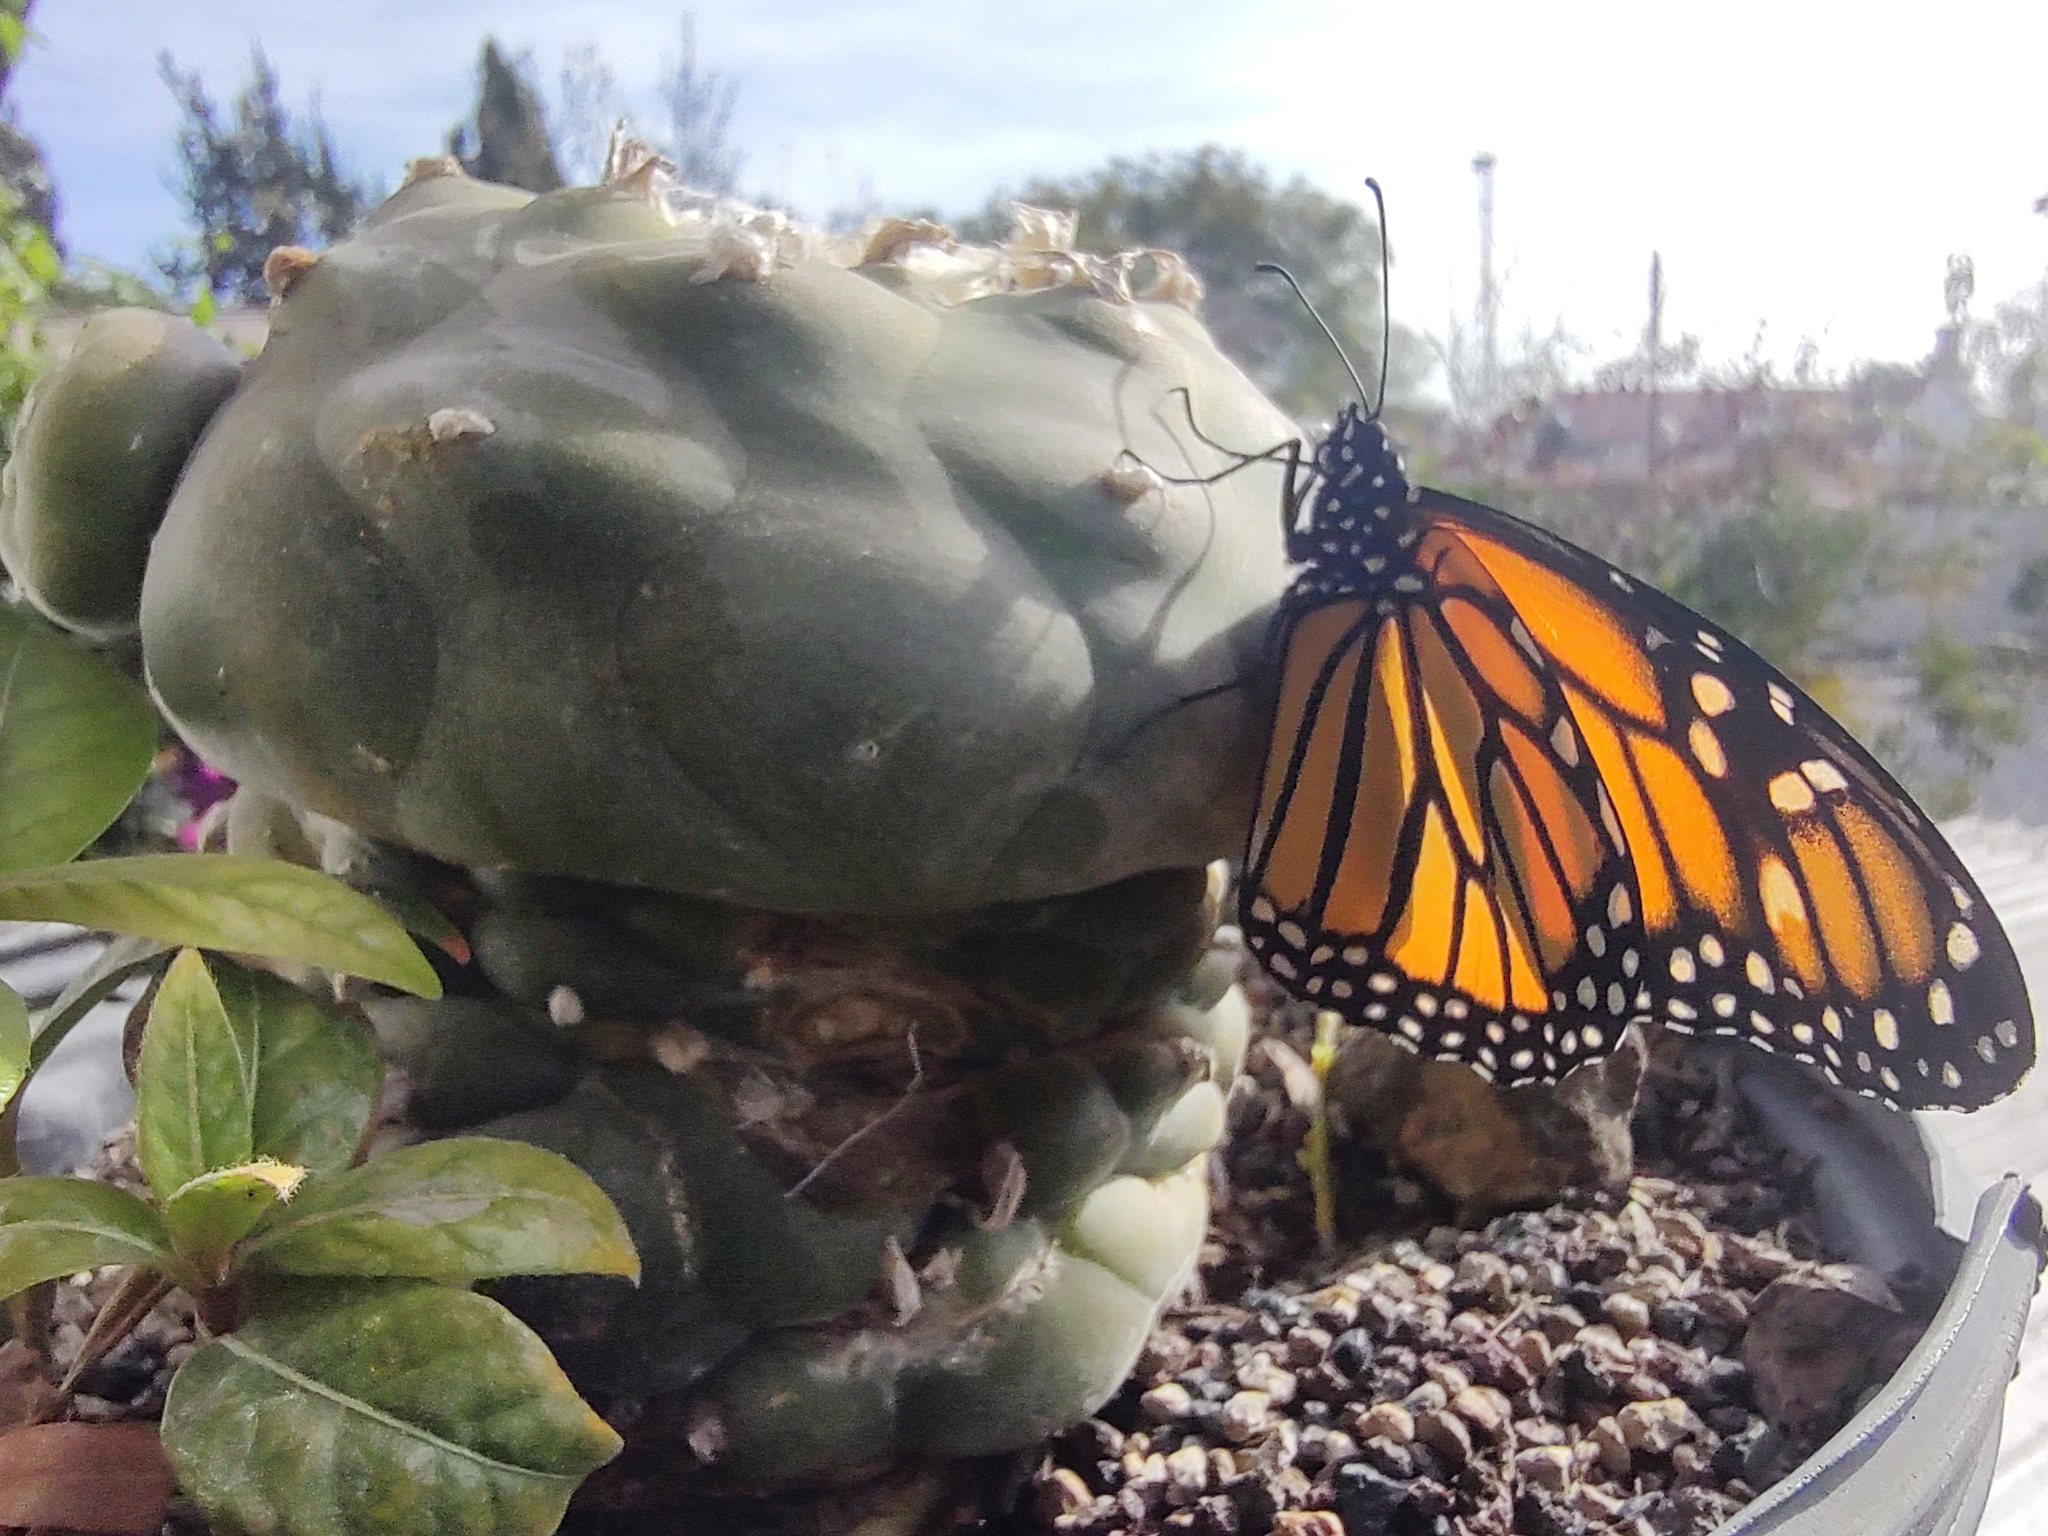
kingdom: Animalia
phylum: Arthropoda
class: Insecta
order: Lepidoptera
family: Nymphalidae
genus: Danaus
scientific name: Danaus plexippus
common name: Monarch
